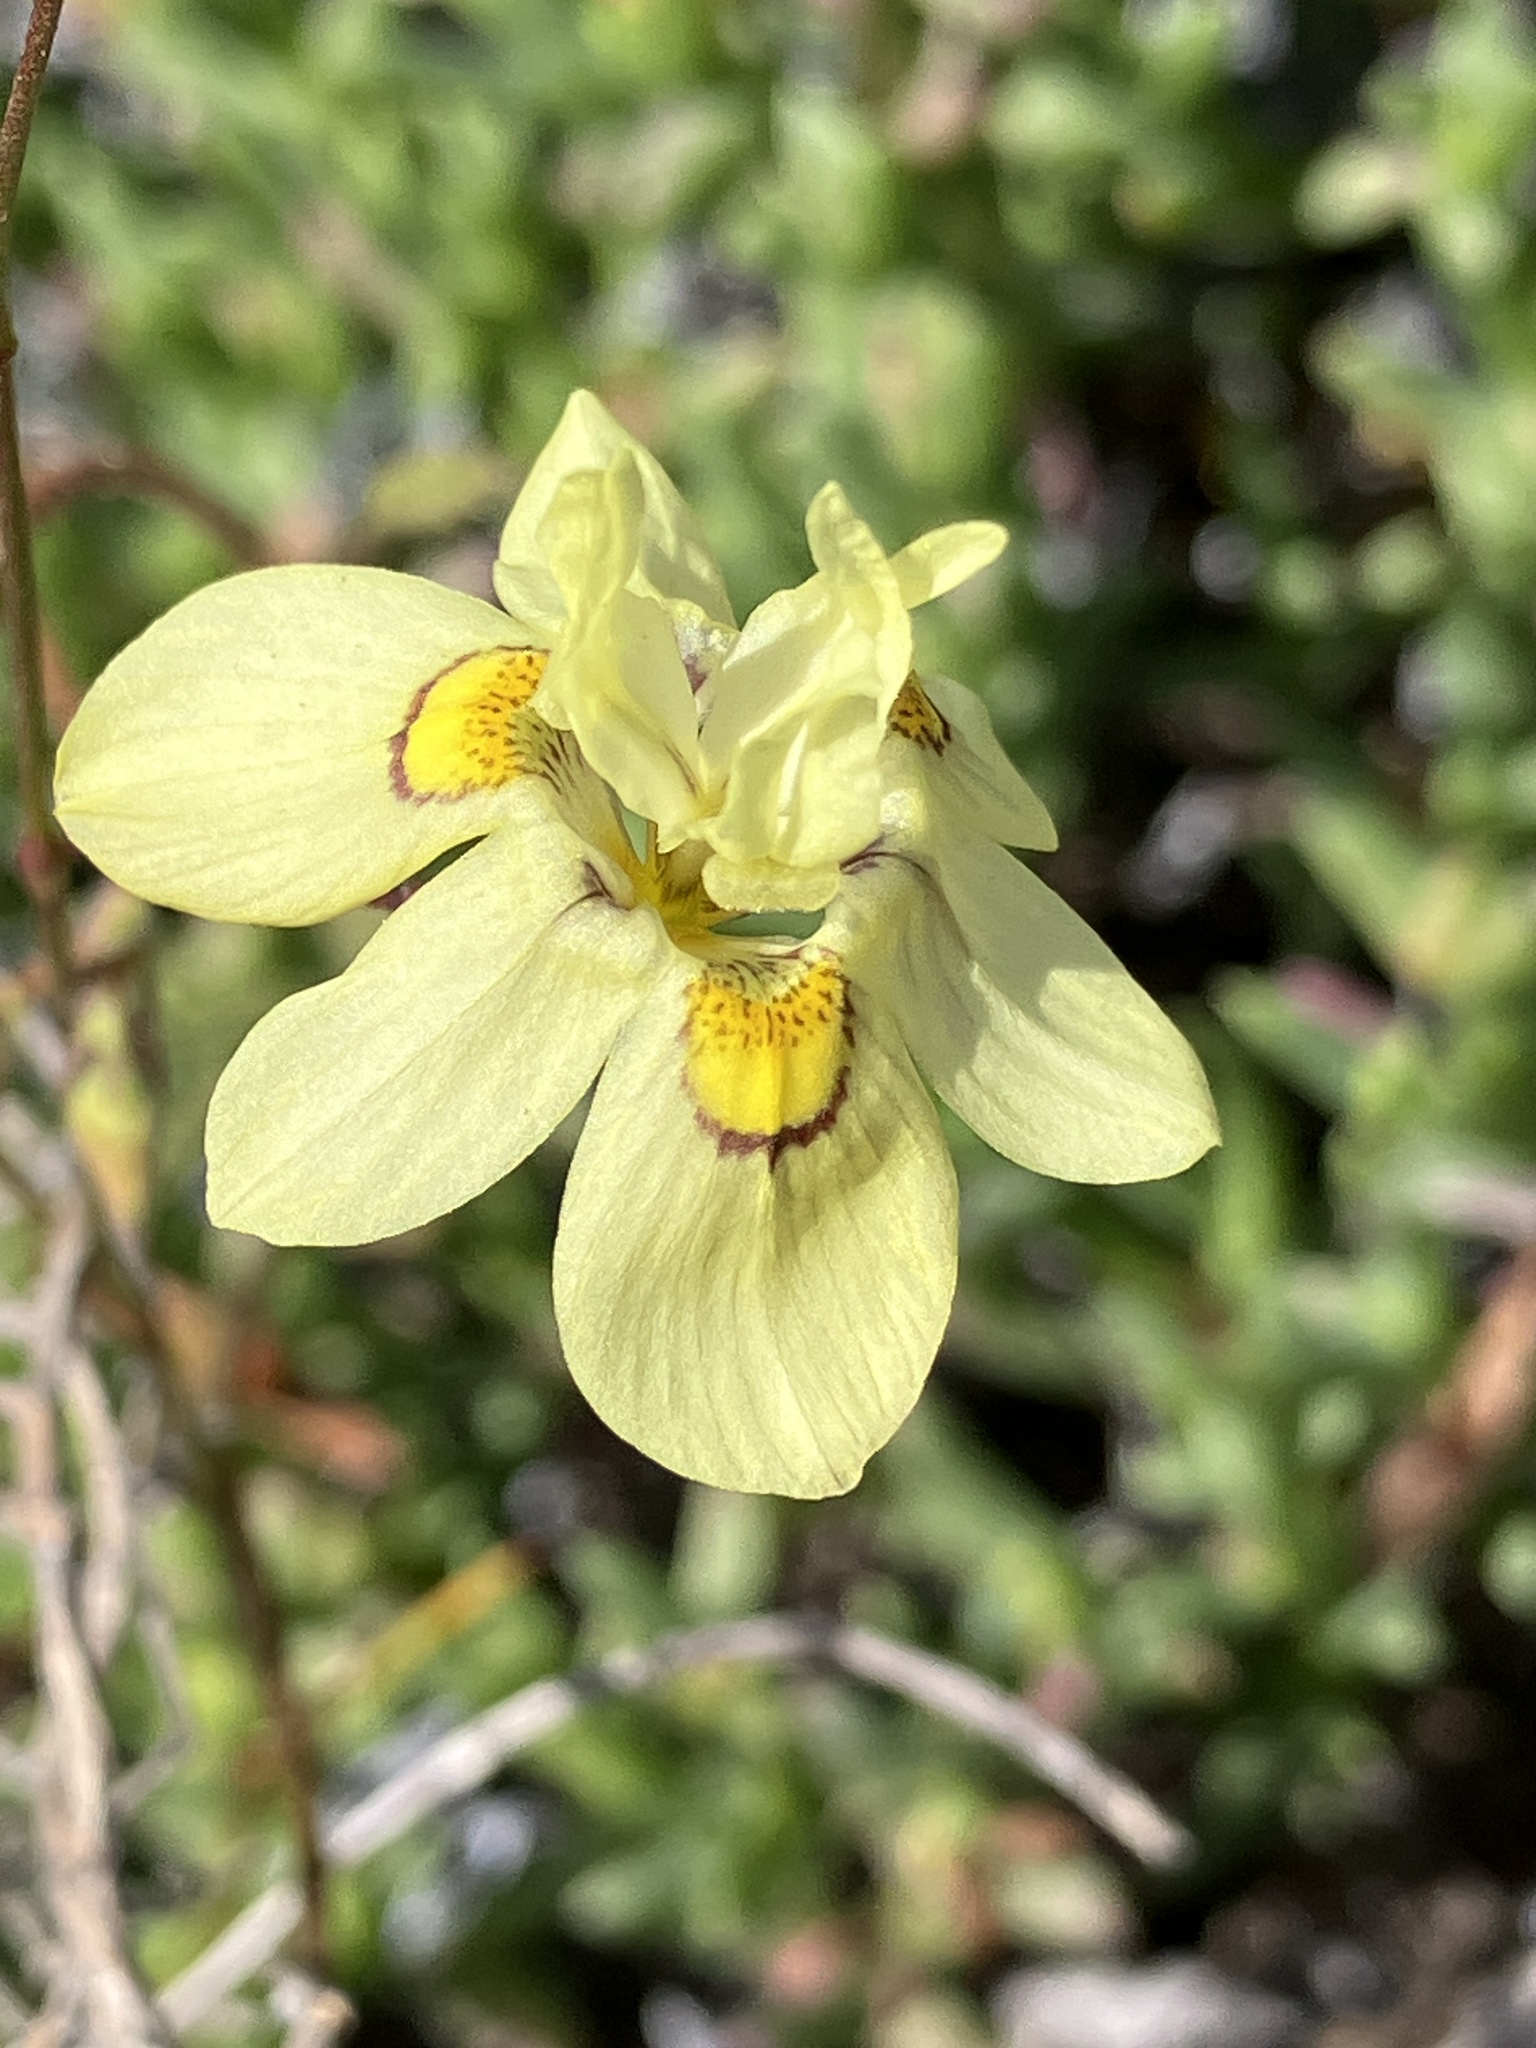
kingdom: Plantae
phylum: Tracheophyta
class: Liliopsida
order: Asparagales
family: Iridaceae
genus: Moraea
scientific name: Moraea gawleri
